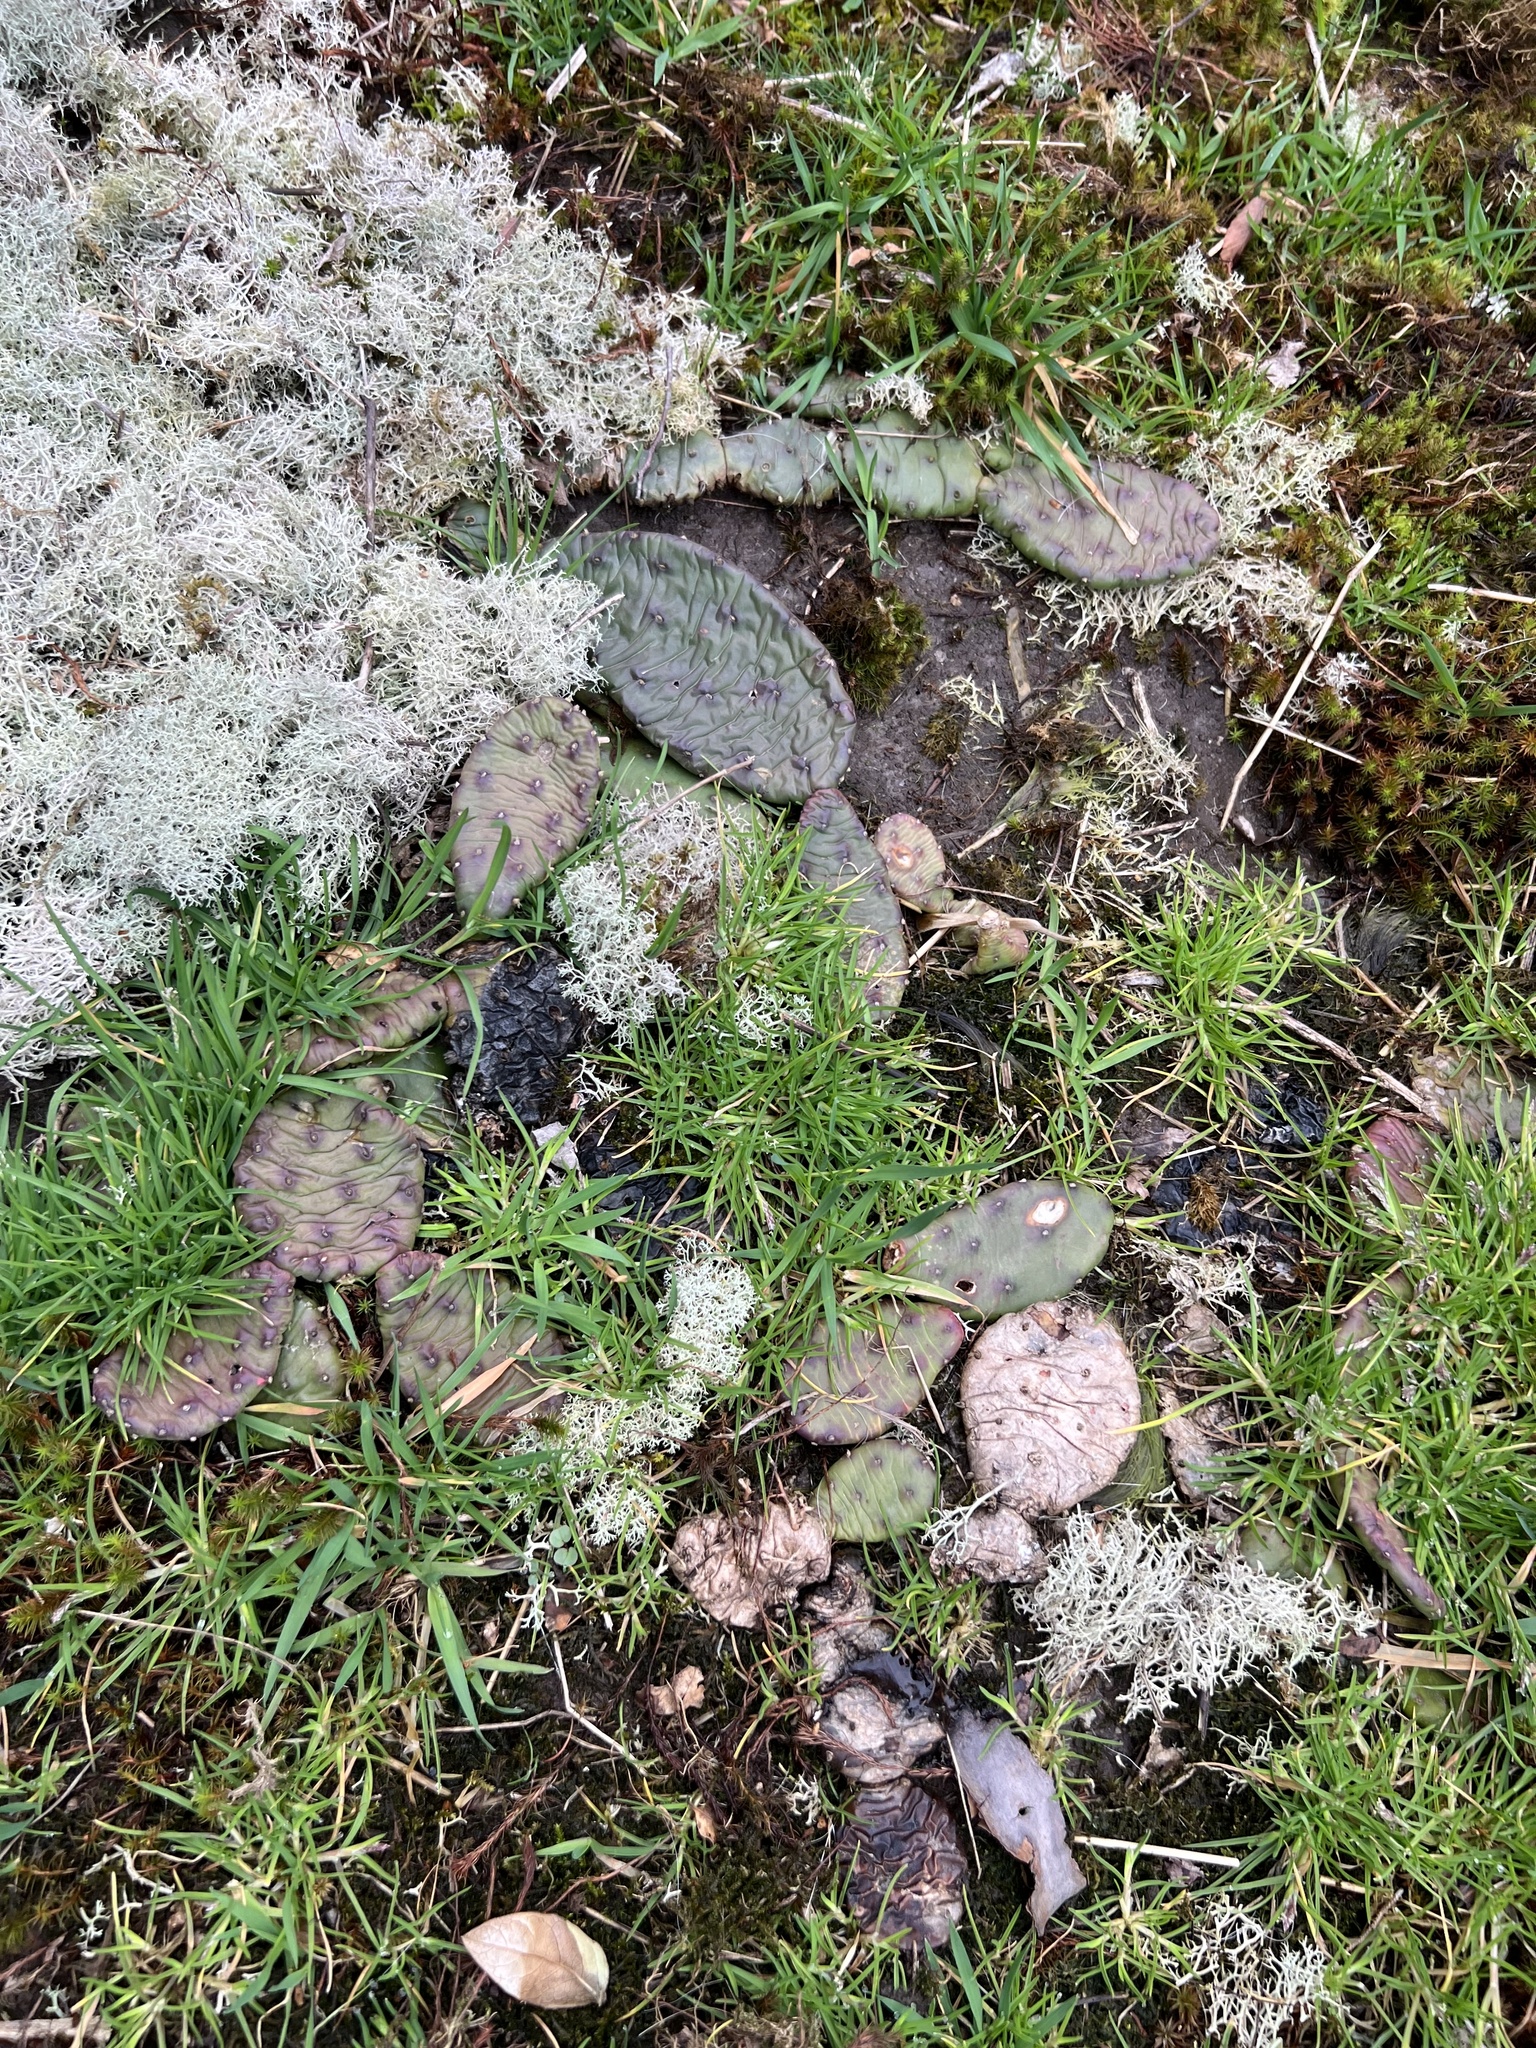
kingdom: Plantae
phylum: Tracheophyta
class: Magnoliopsida
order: Caryophyllales
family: Cactaceae
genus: Opuntia
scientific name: Opuntia mesacantha
